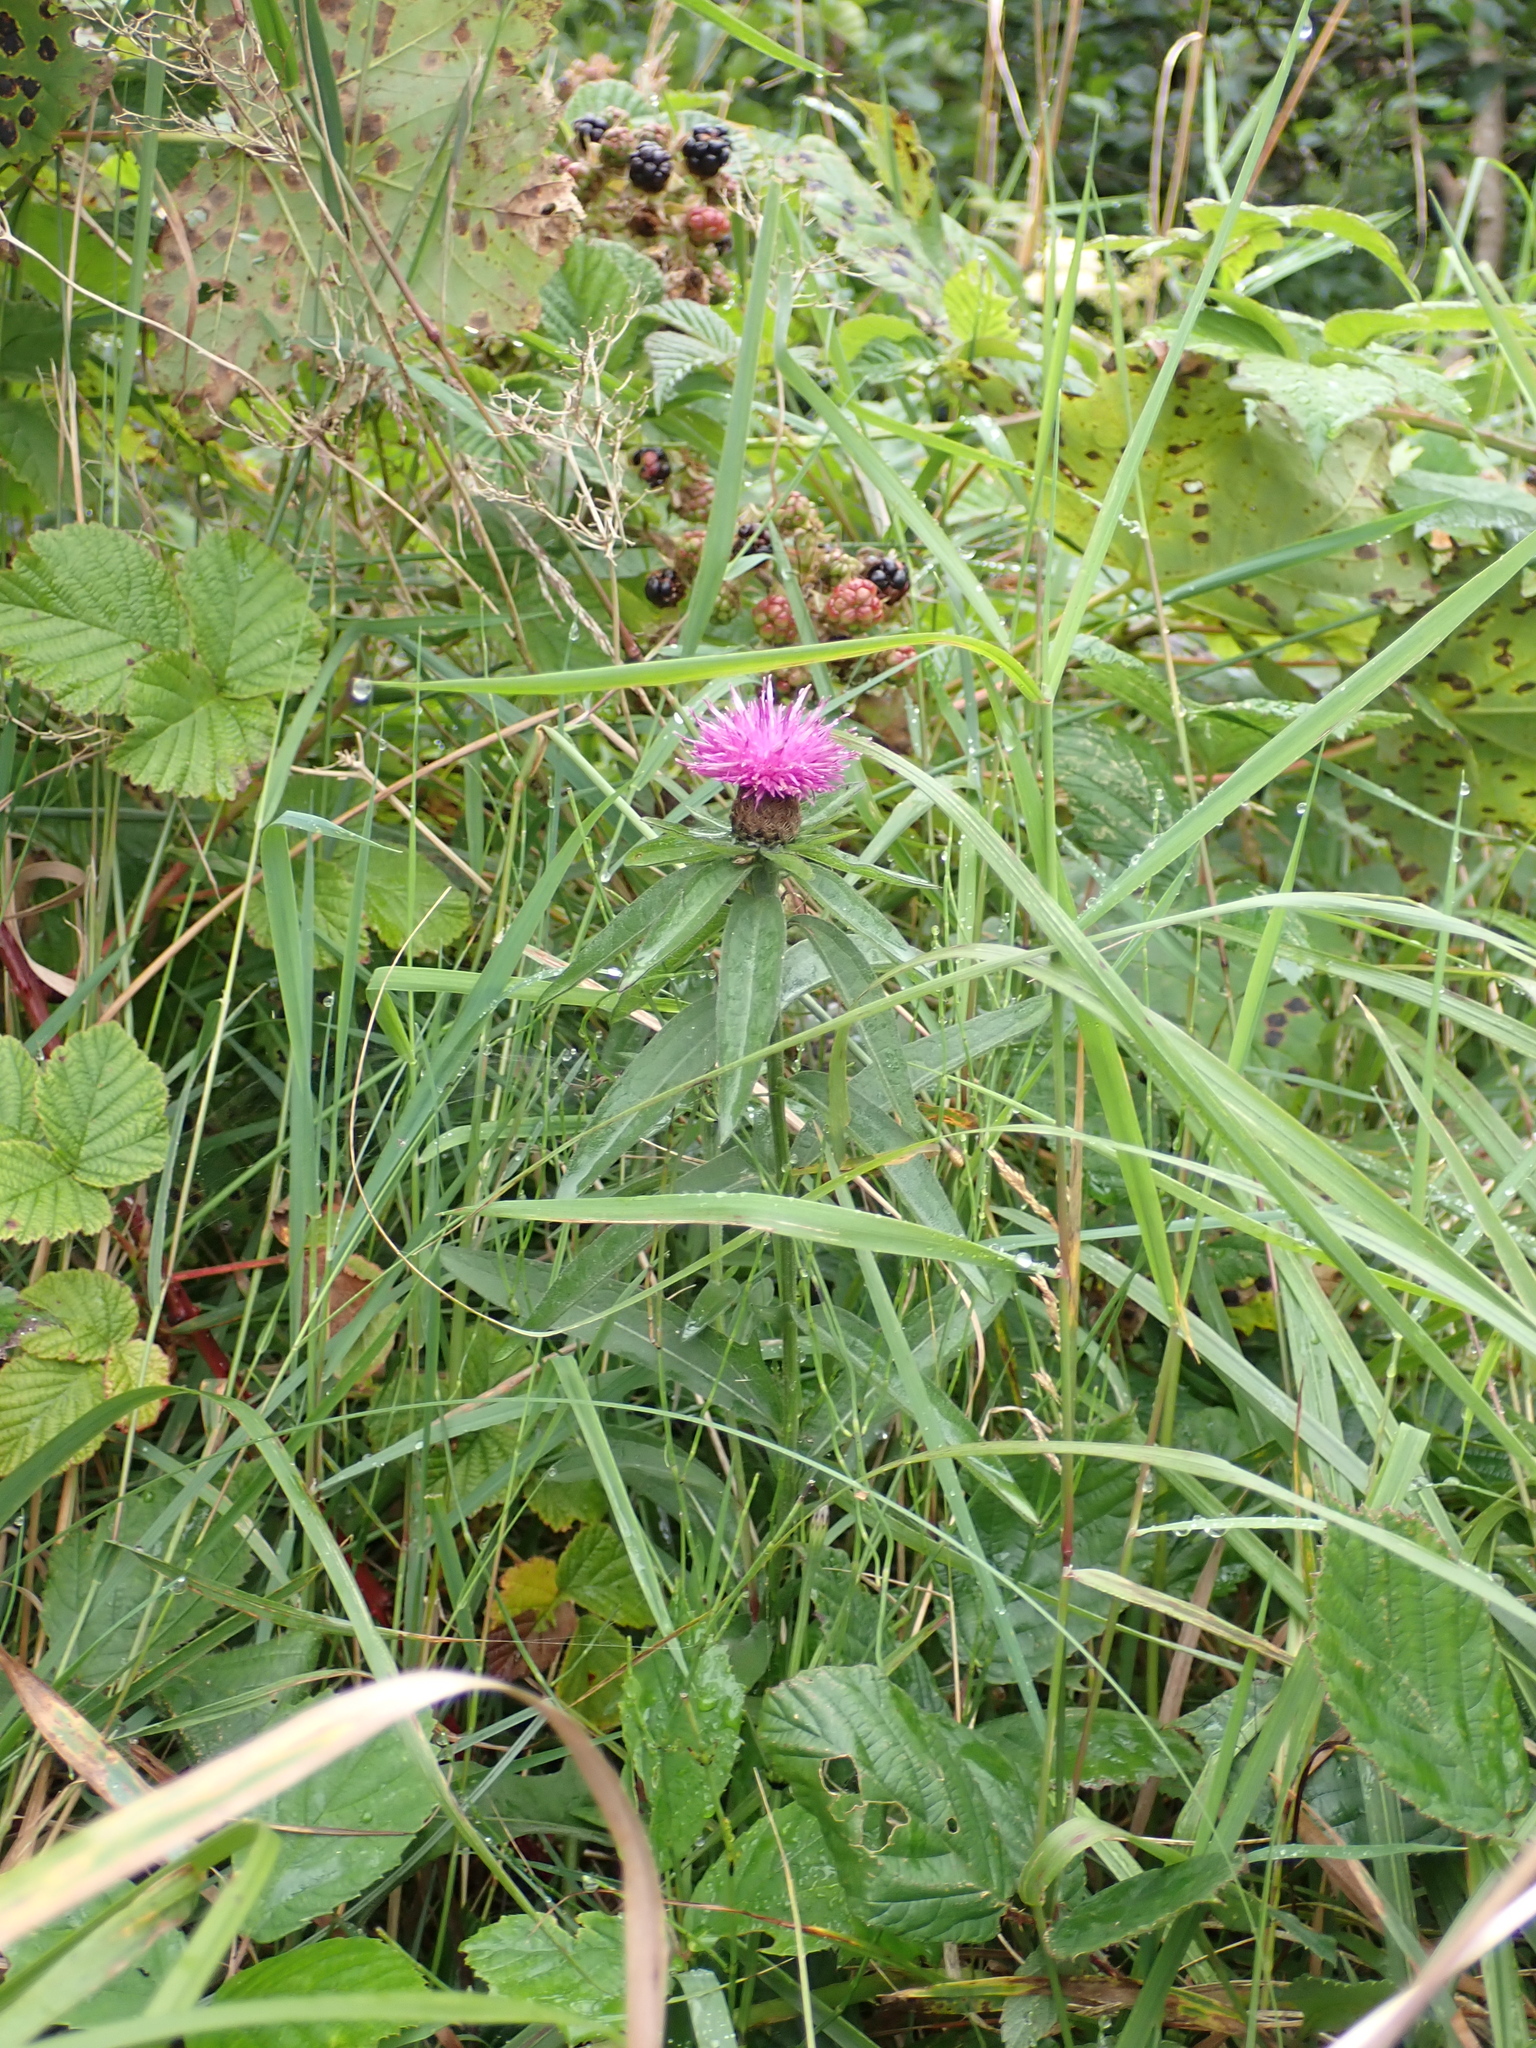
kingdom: Plantae
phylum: Tracheophyta
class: Magnoliopsida
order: Asterales
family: Asteraceae
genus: Centaurea
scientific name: Centaurea nigra
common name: Lesser knapweed
